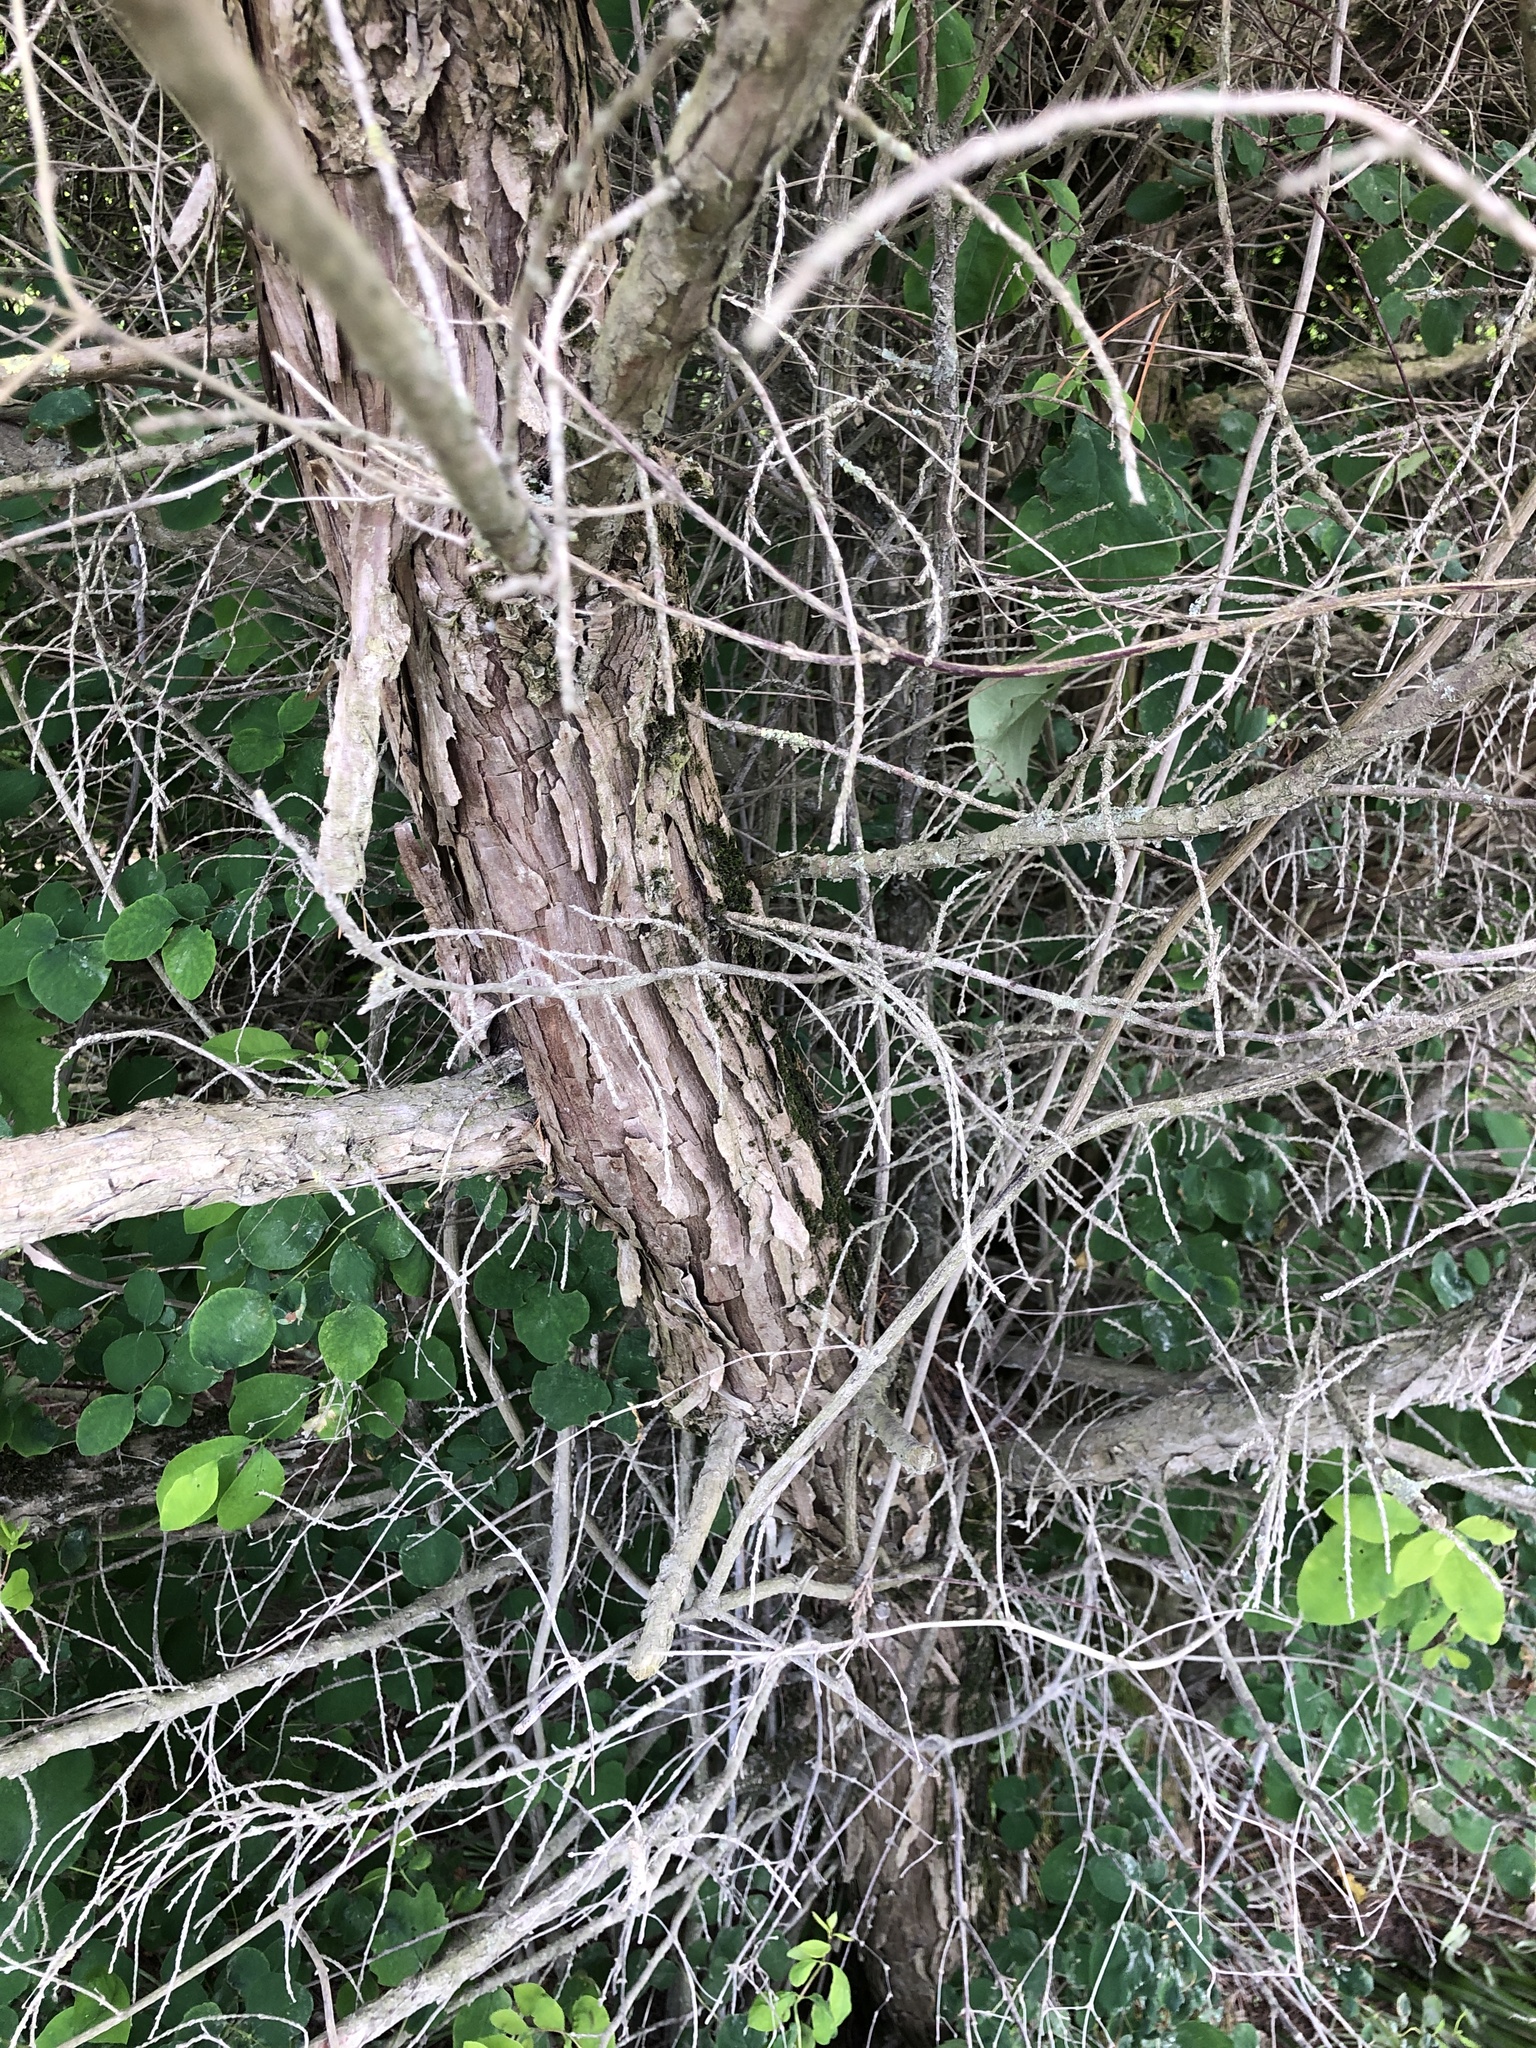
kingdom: Plantae
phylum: Tracheophyta
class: Pinopsida
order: Pinales
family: Cupressaceae
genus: Juniperus
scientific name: Juniperus scopulorum
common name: Rocky mountain juniper
